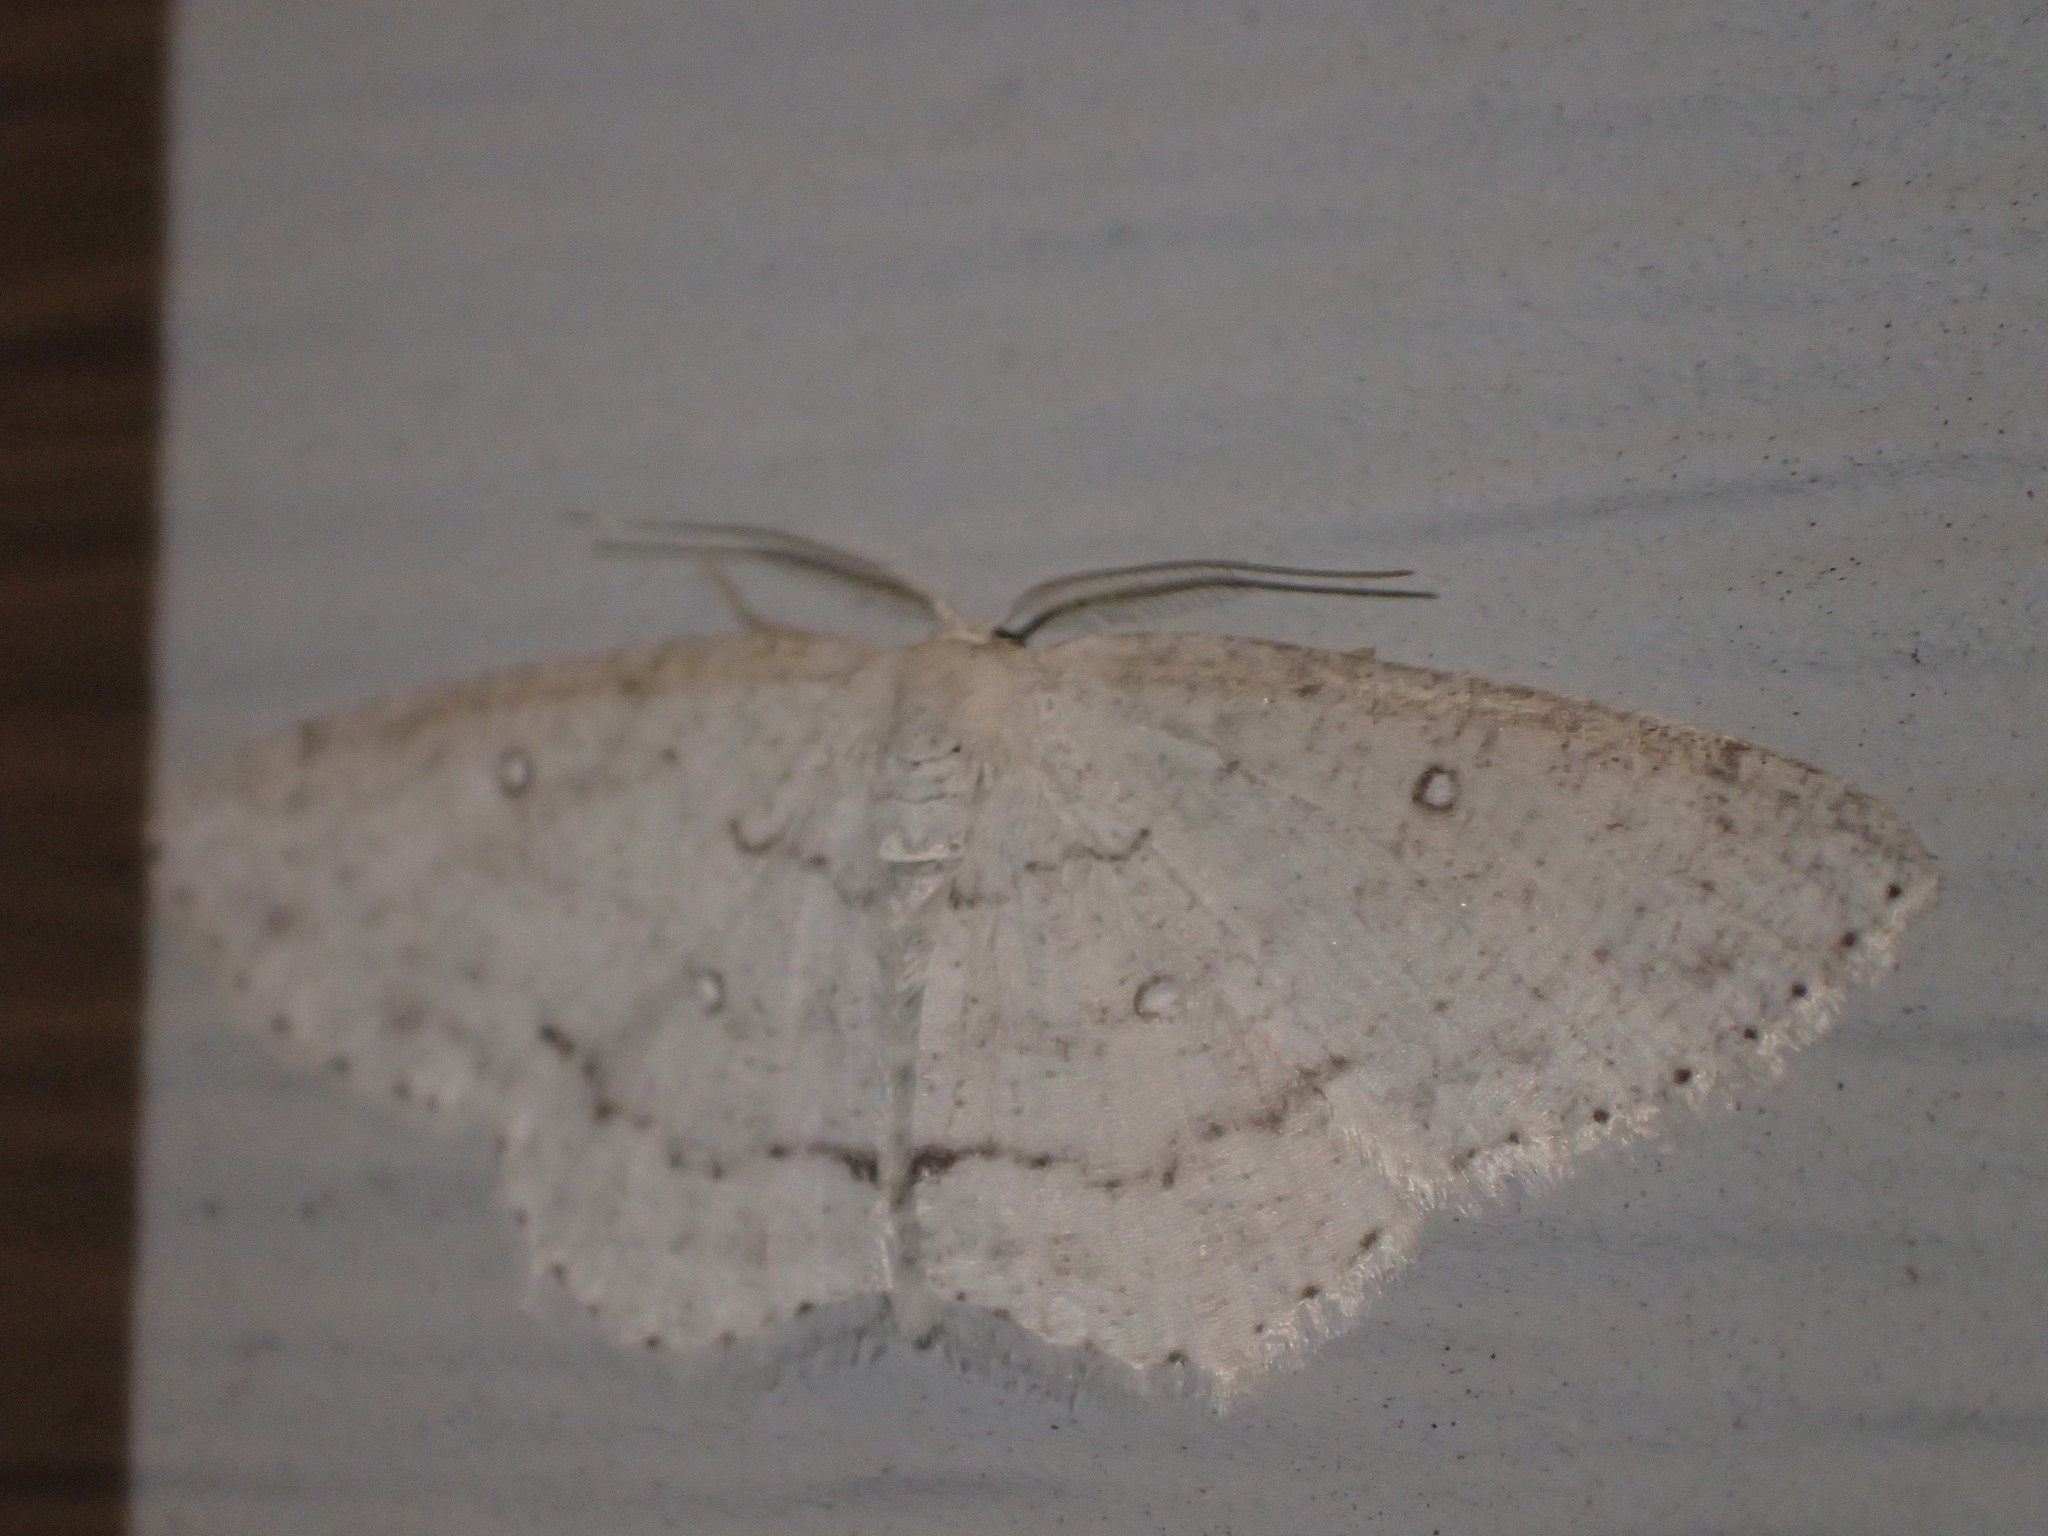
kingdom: Animalia
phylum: Arthropoda
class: Insecta
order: Lepidoptera
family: Geometridae
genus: Cyclophora
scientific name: Cyclophora pendulinaria
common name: Sweet fern geometer
